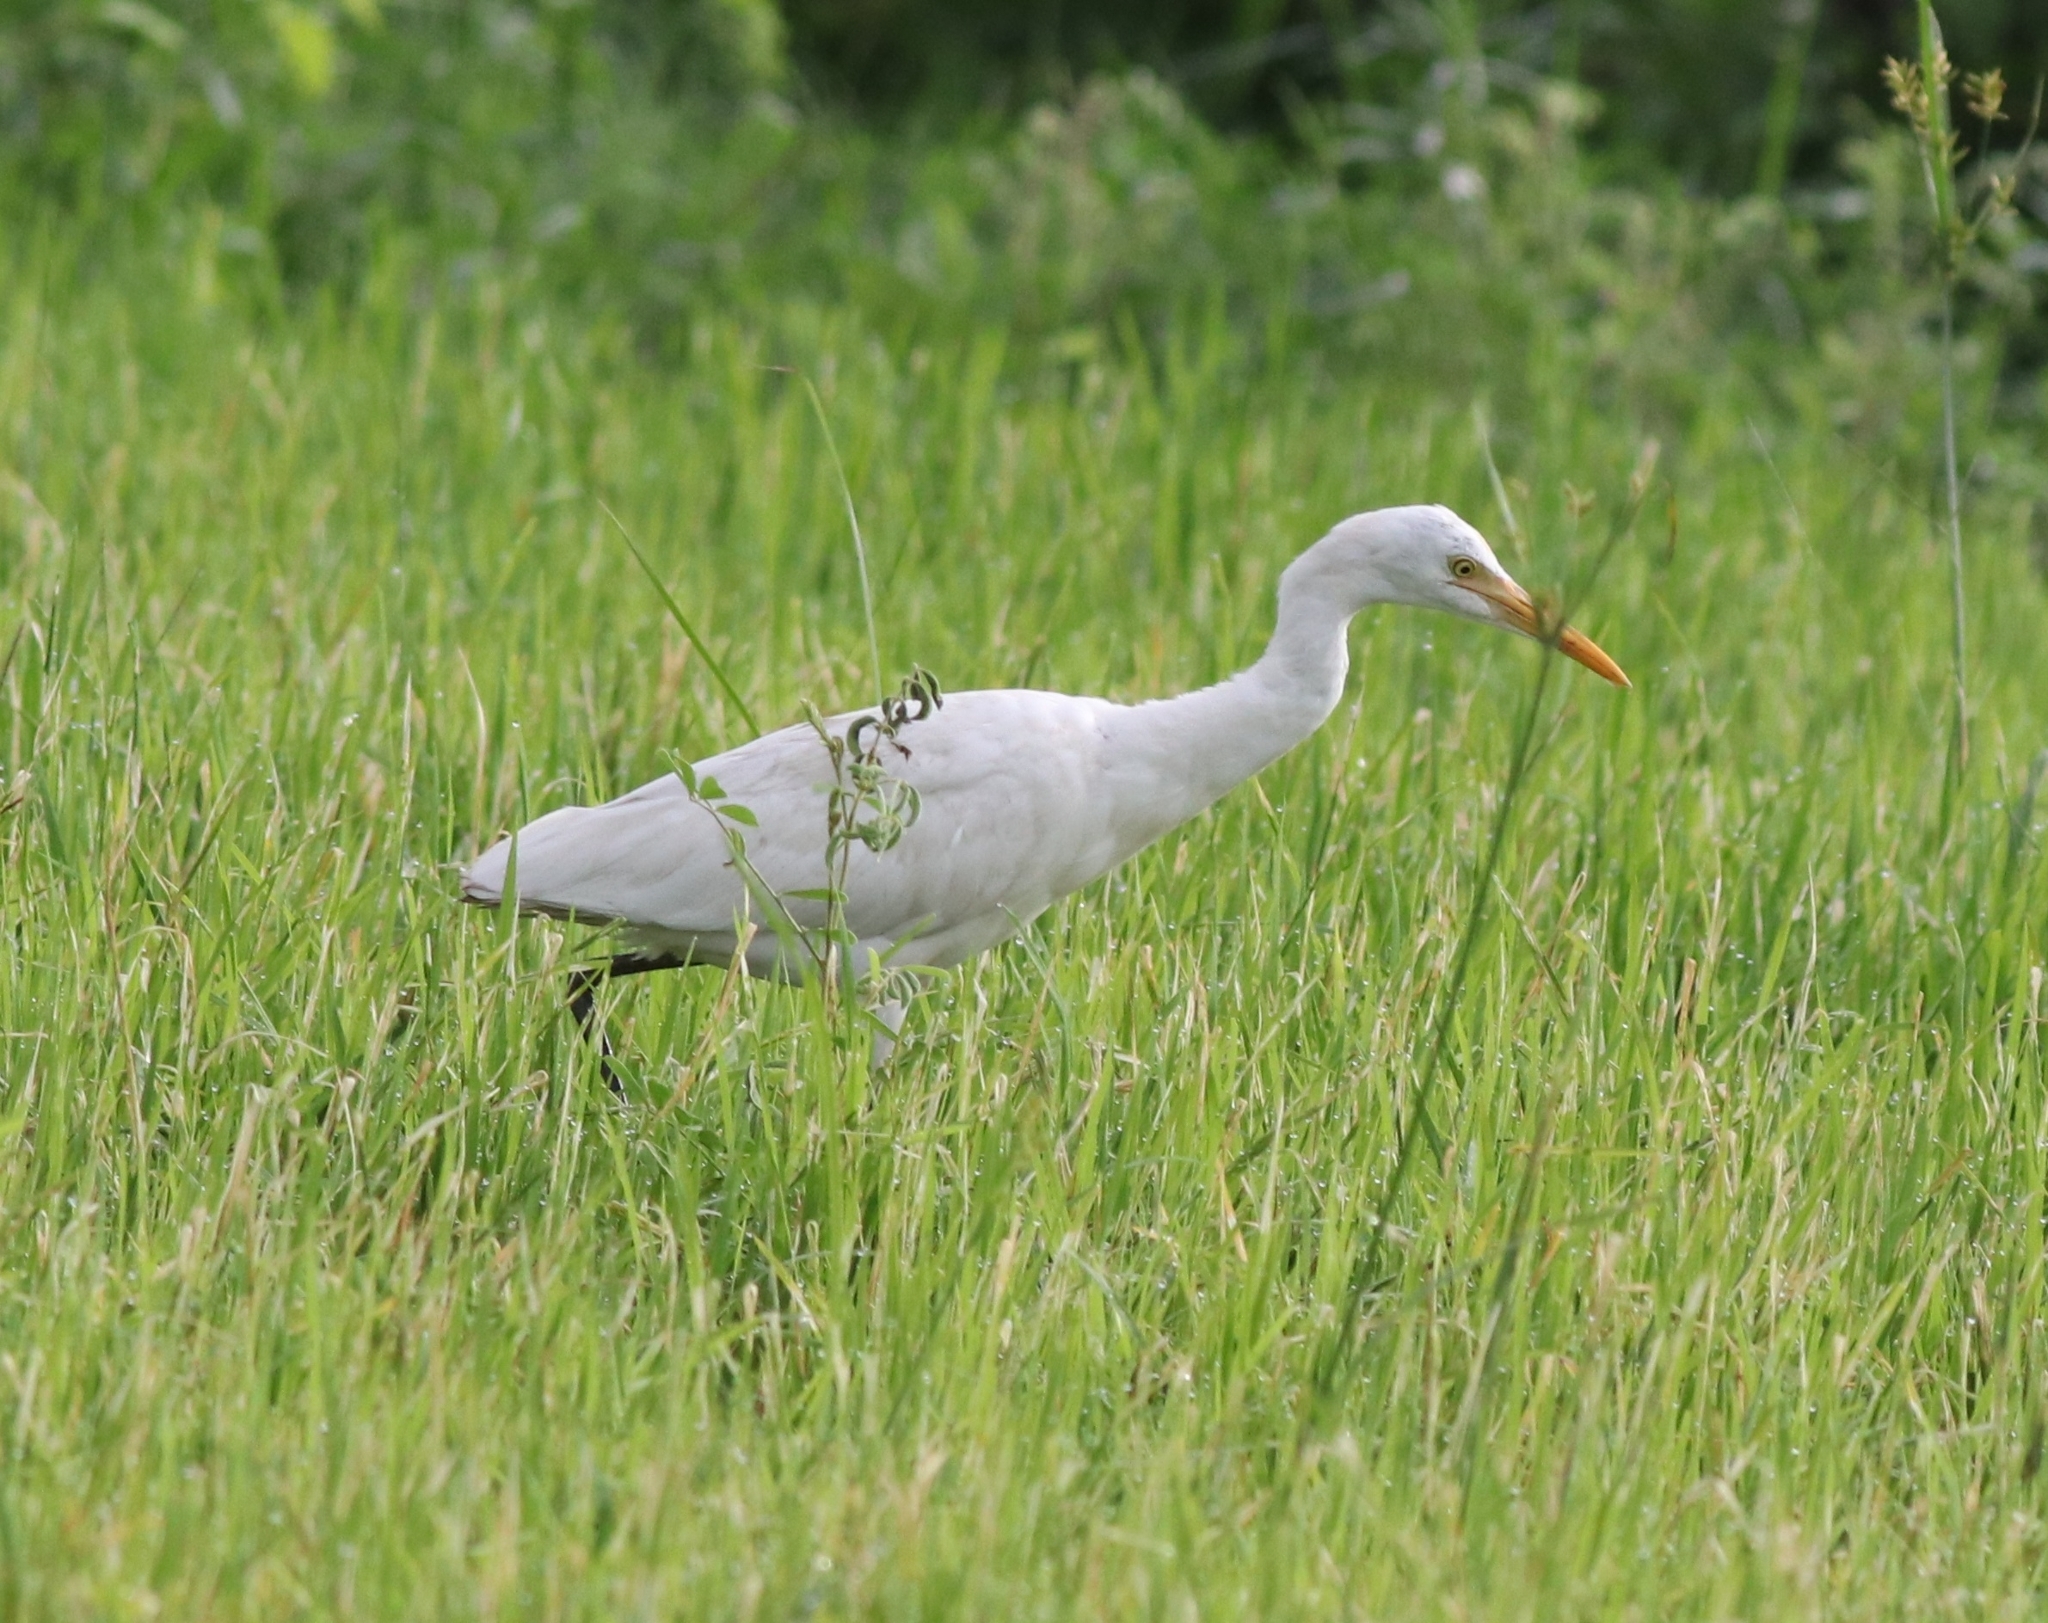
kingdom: Animalia
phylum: Chordata
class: Aves
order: Pelecaniformes
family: Ardeidae
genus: Bubulcus
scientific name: Bubulcus coromandus
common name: Eastern cattle egret
